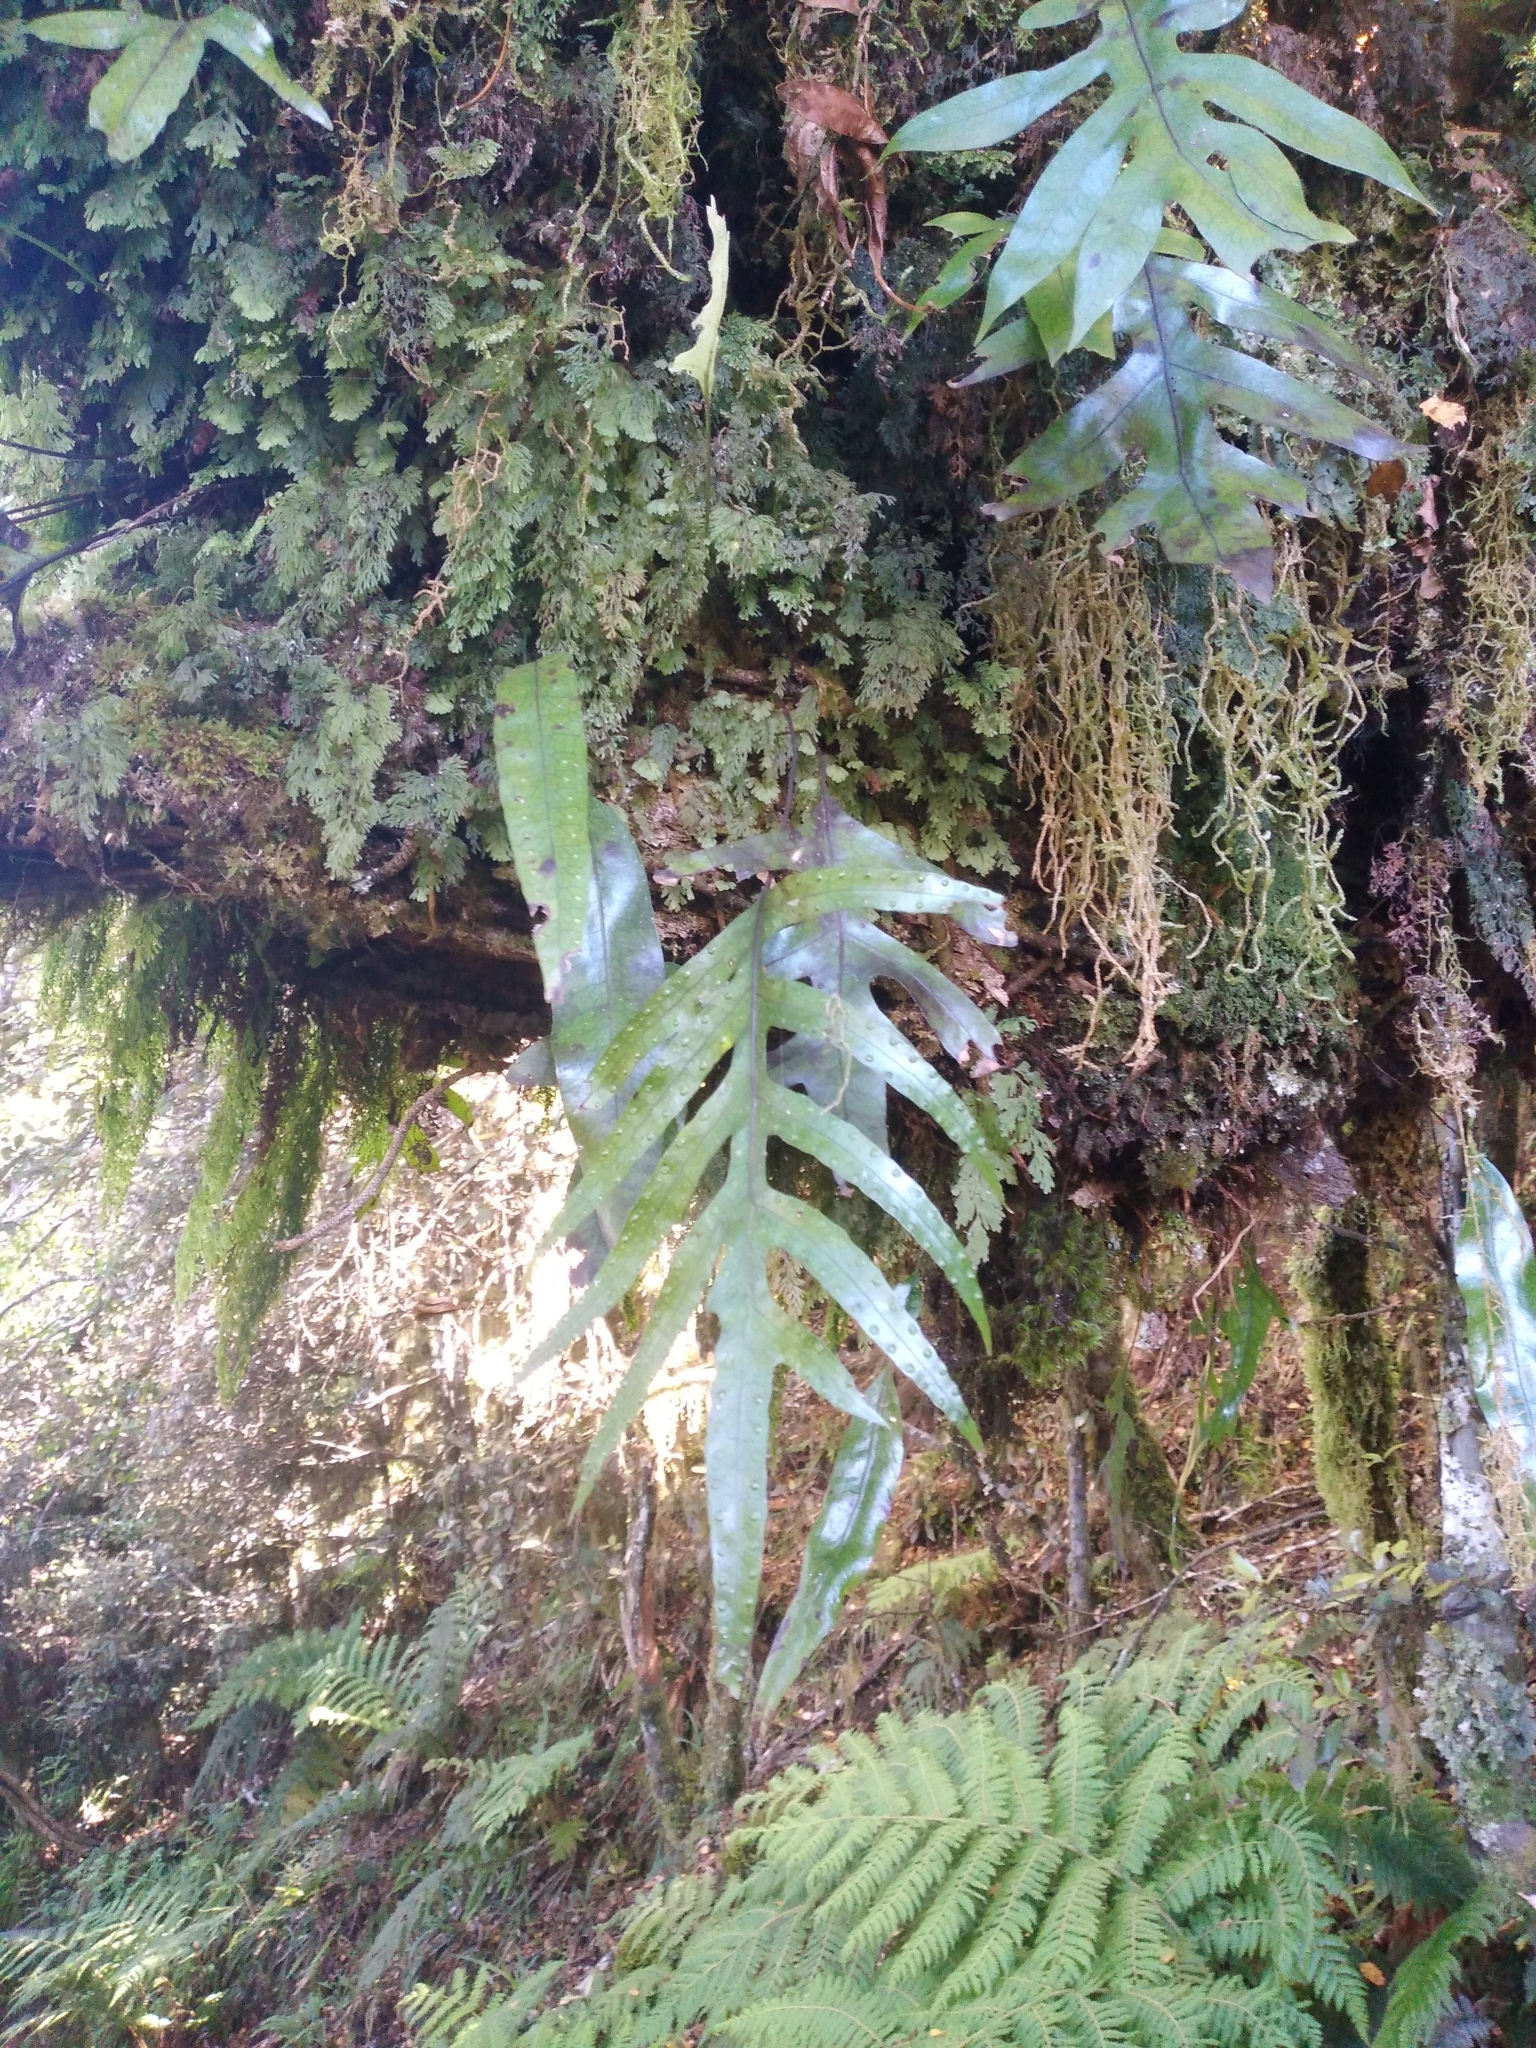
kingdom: Plantae
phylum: Tracheophyta
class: Polypodiopsida
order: Polypodiales
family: Polypodiaceae
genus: Lecanopteris
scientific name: Lecanopteris pustulata
